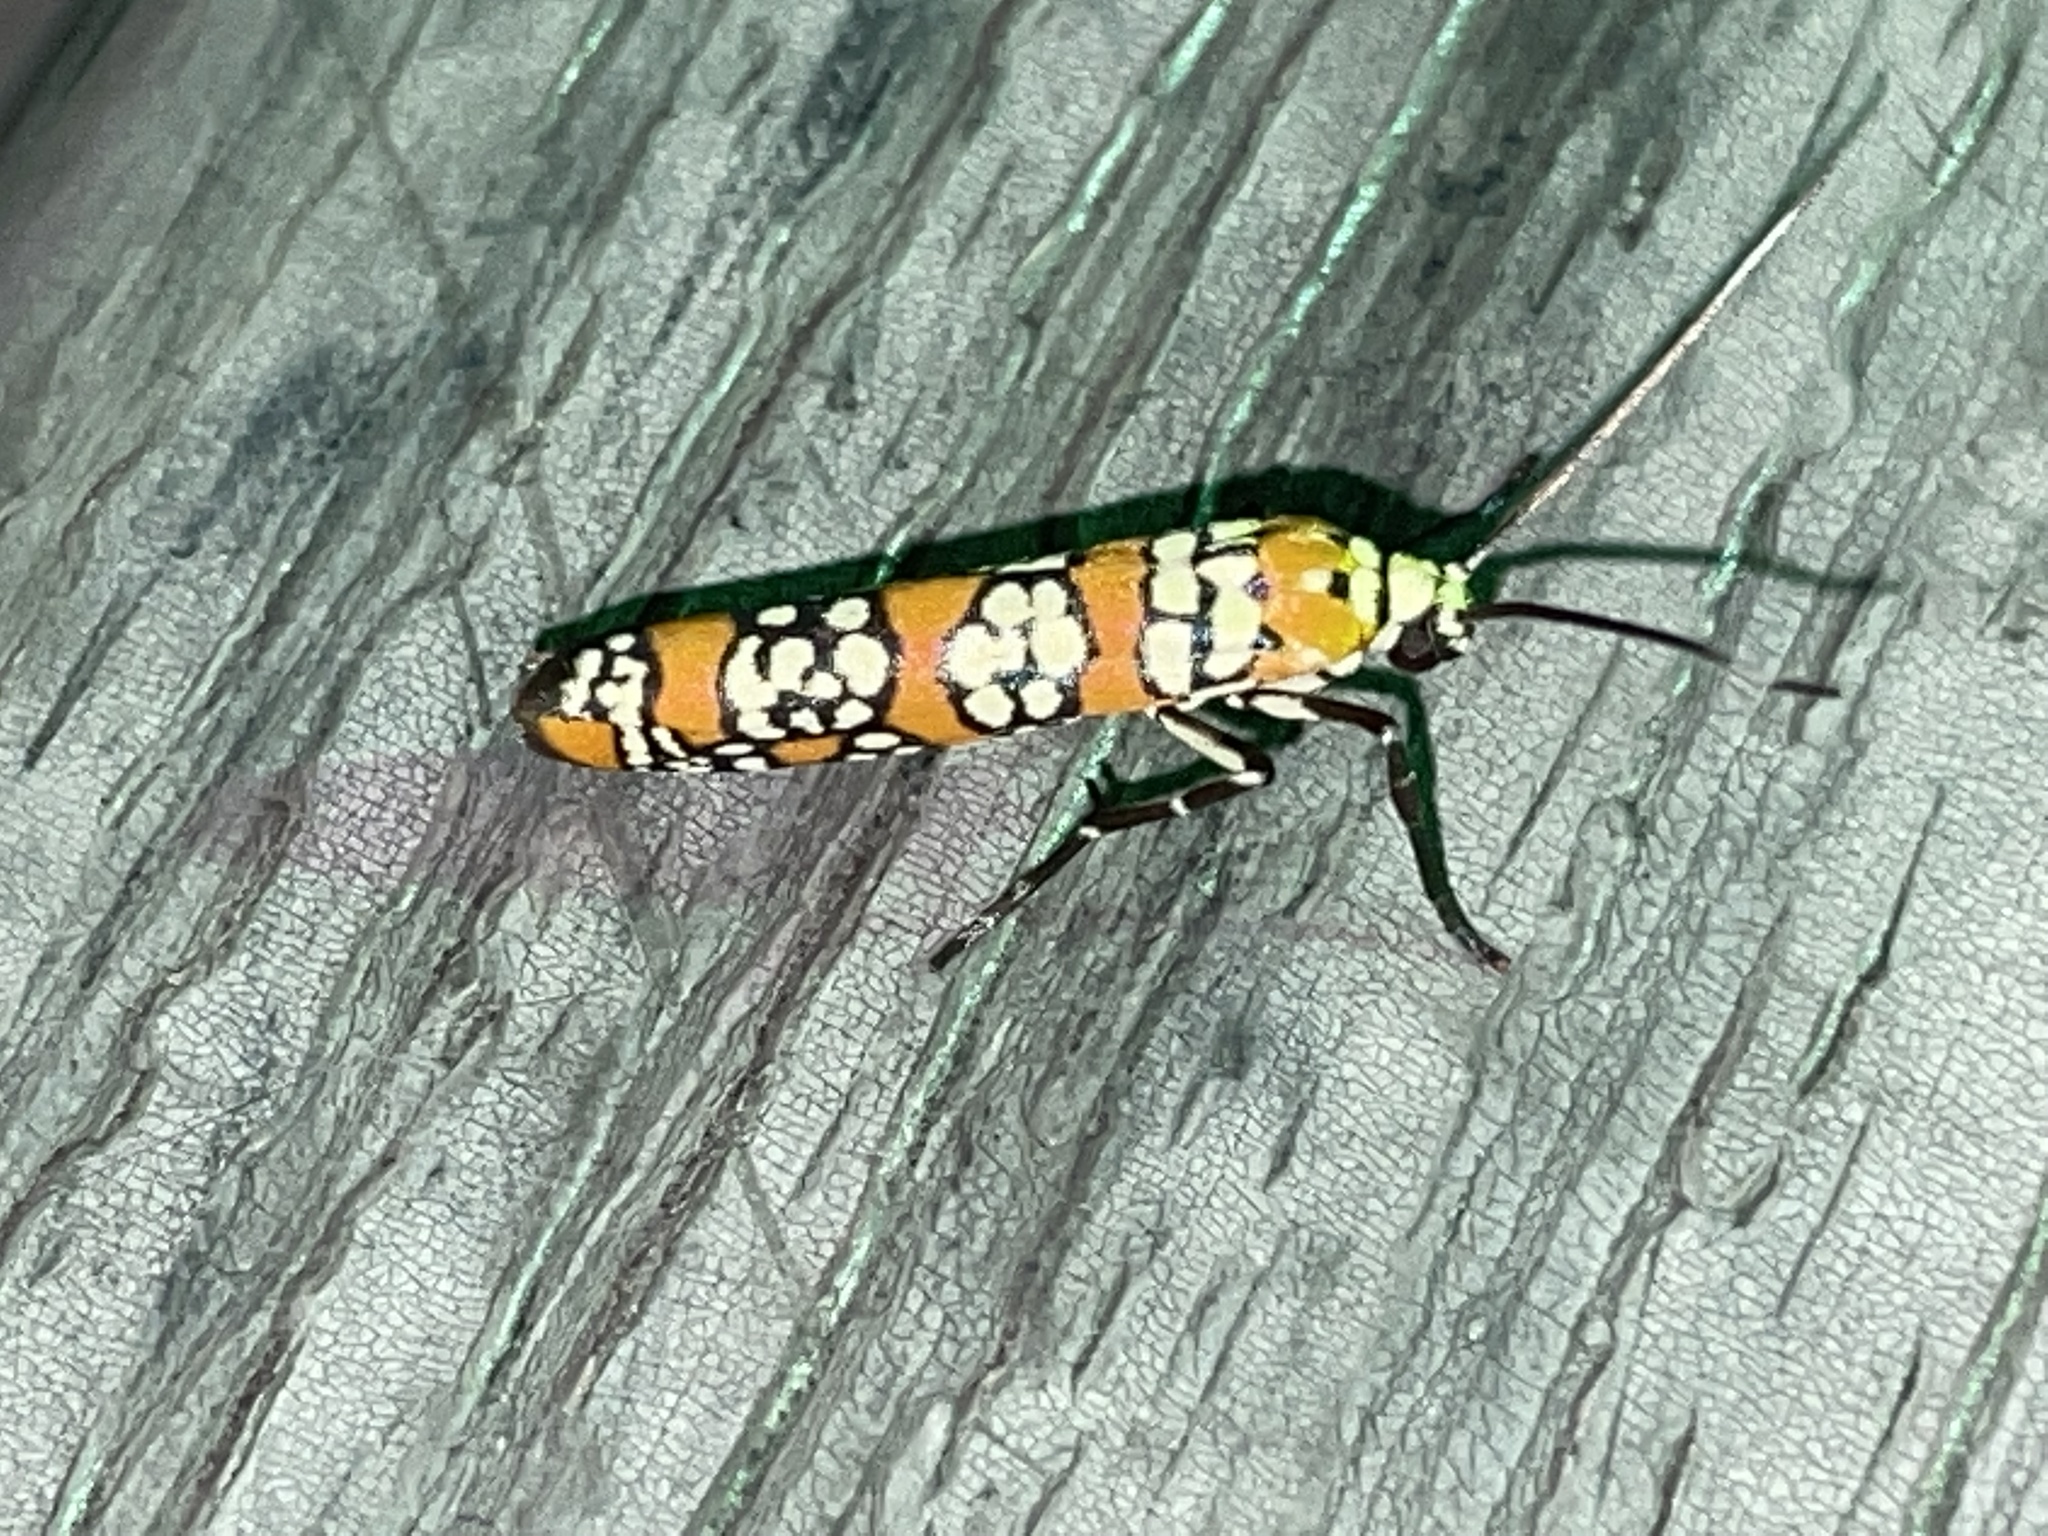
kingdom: Animalia
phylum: Arthropoda
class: Insecta
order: Lepidoptera
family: Attevidae
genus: Atteva
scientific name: Atteva punctella
